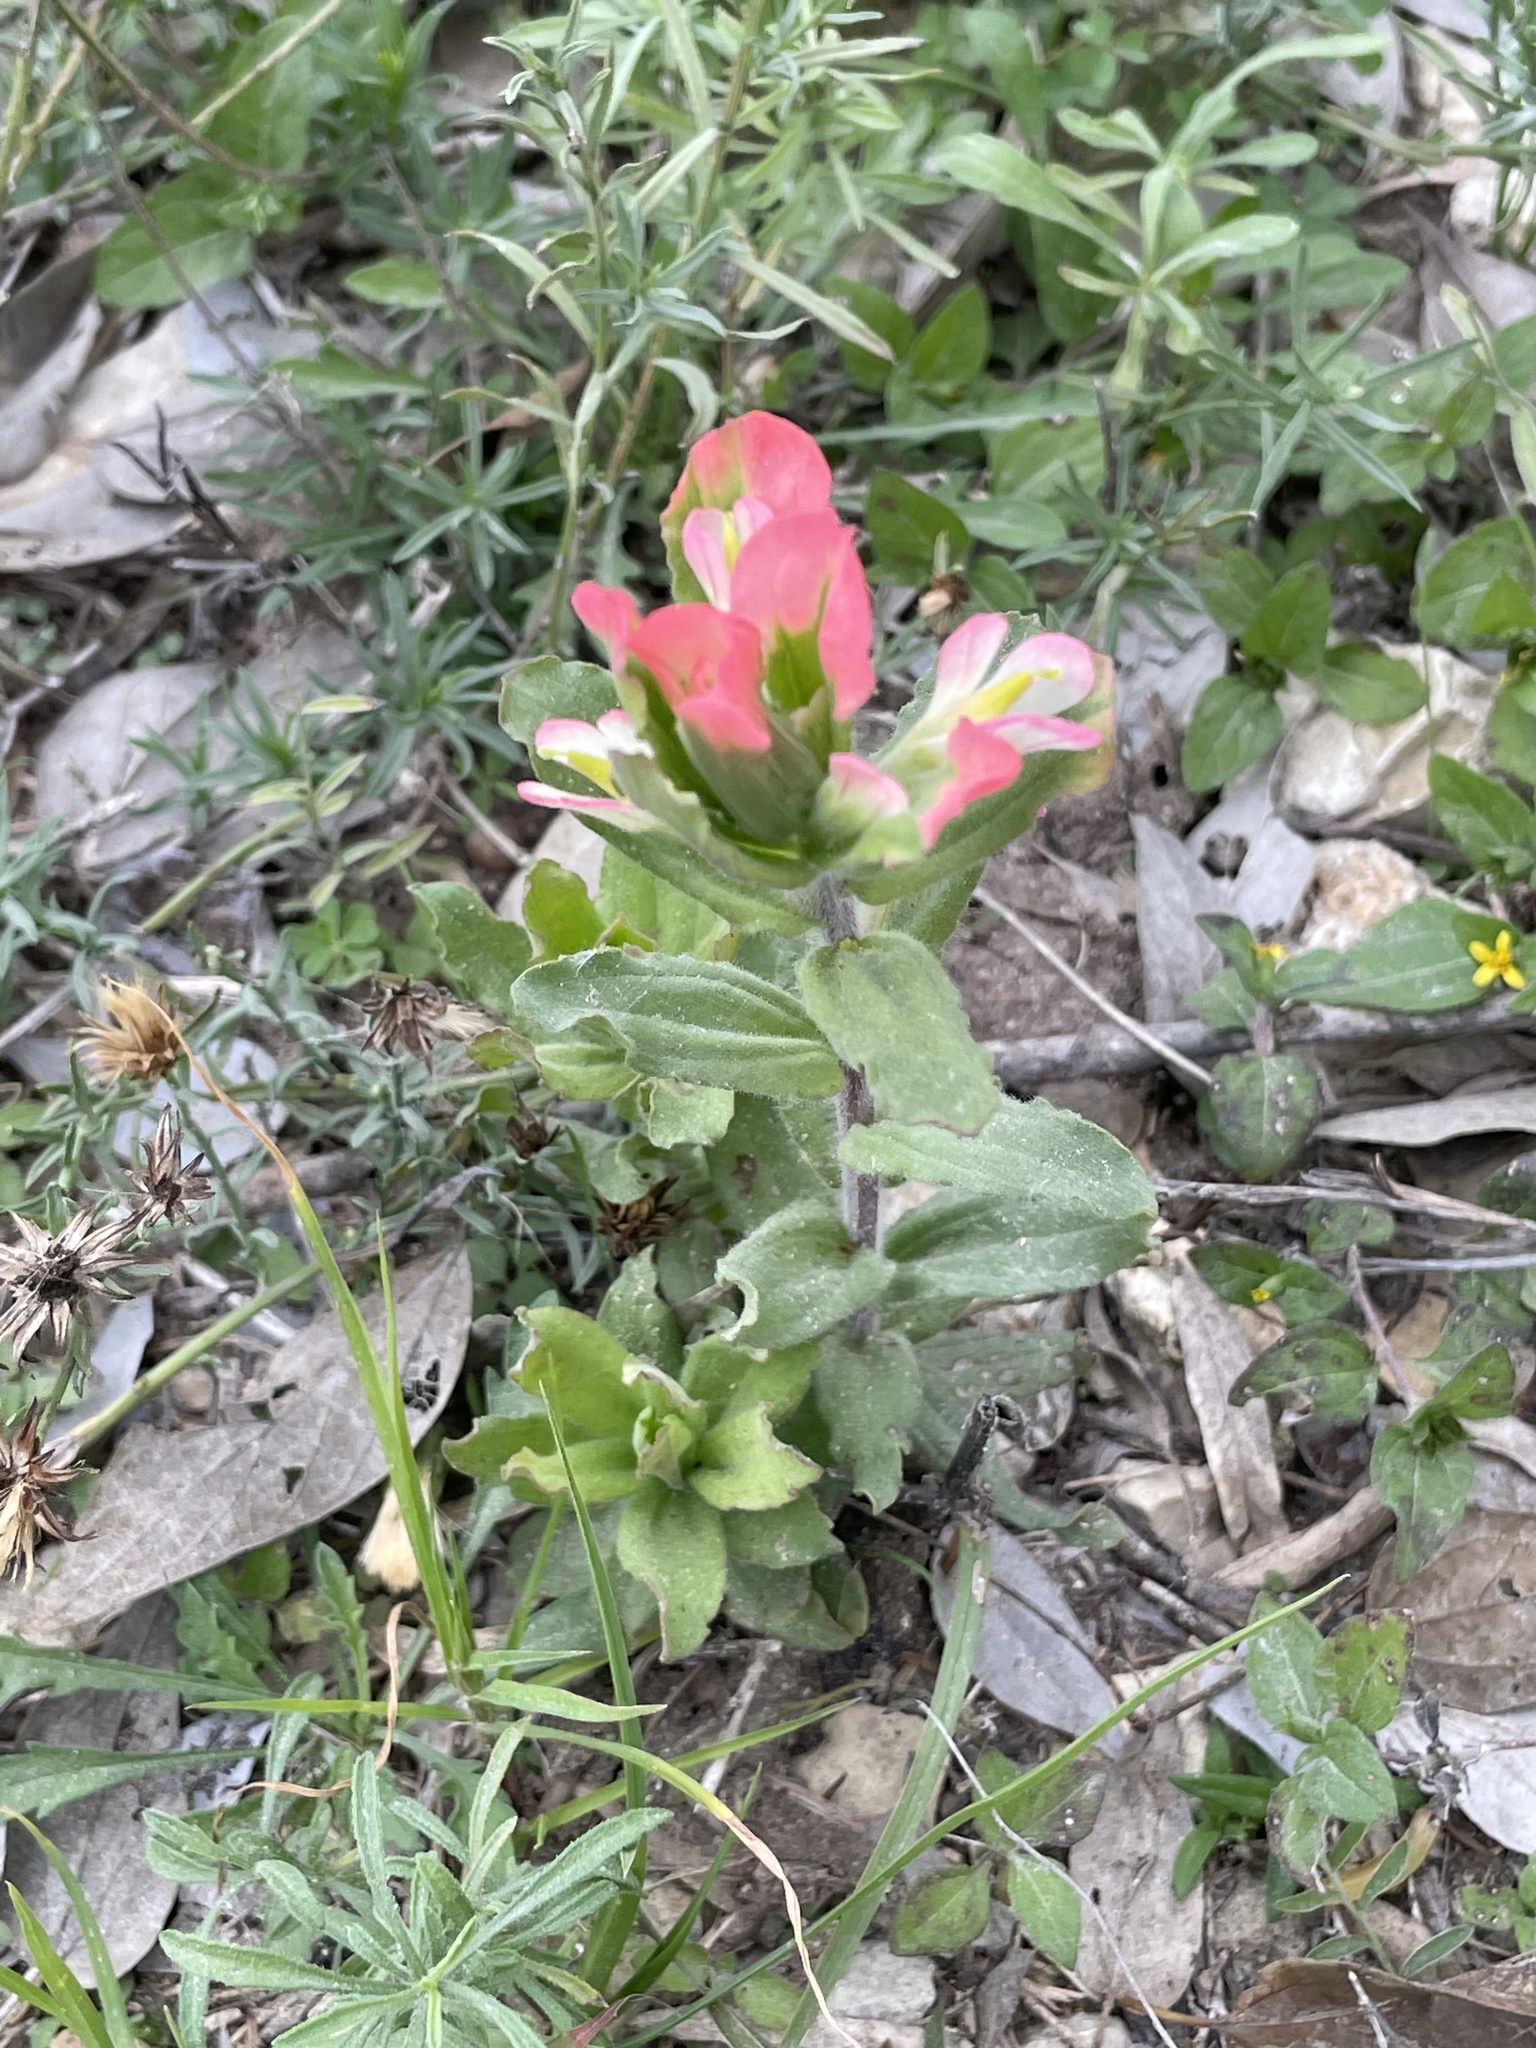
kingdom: Plantae
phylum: Tracheophyta
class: Magnoliopsida
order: Lamiales
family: Orobanchaceae
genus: Castilleja
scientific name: Castilleja indivisa
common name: Texas paintbrush
